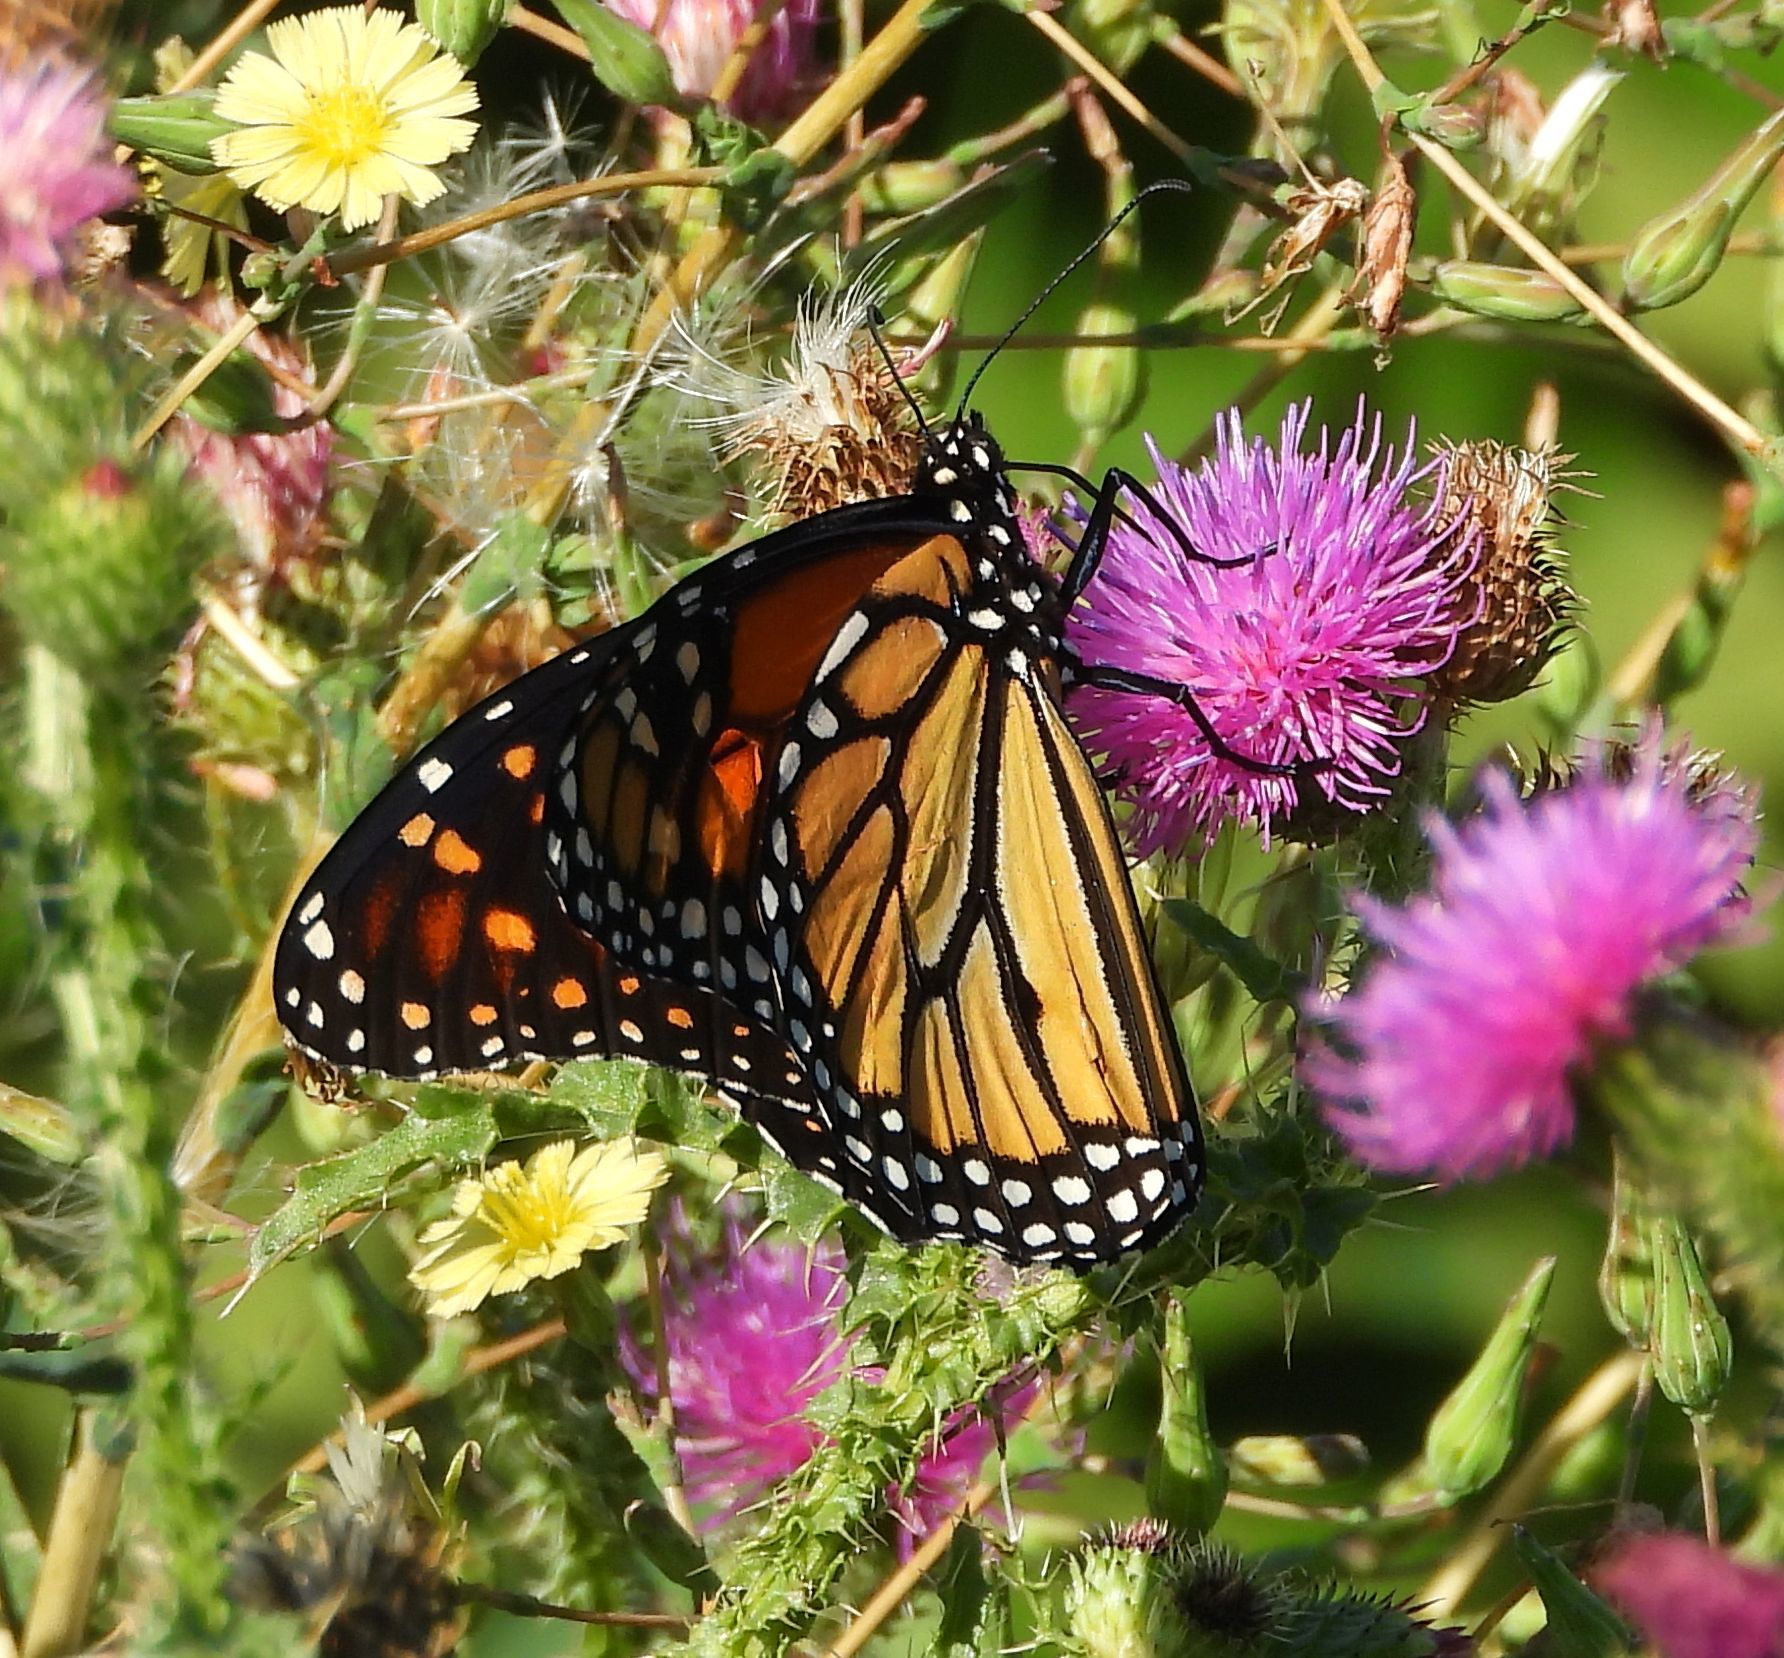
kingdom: Animalia
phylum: Arthropoda
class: Insecta
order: Lepidoptera
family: Nymphalidae
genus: Danaus
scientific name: Danaus plexippus
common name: Monarch
